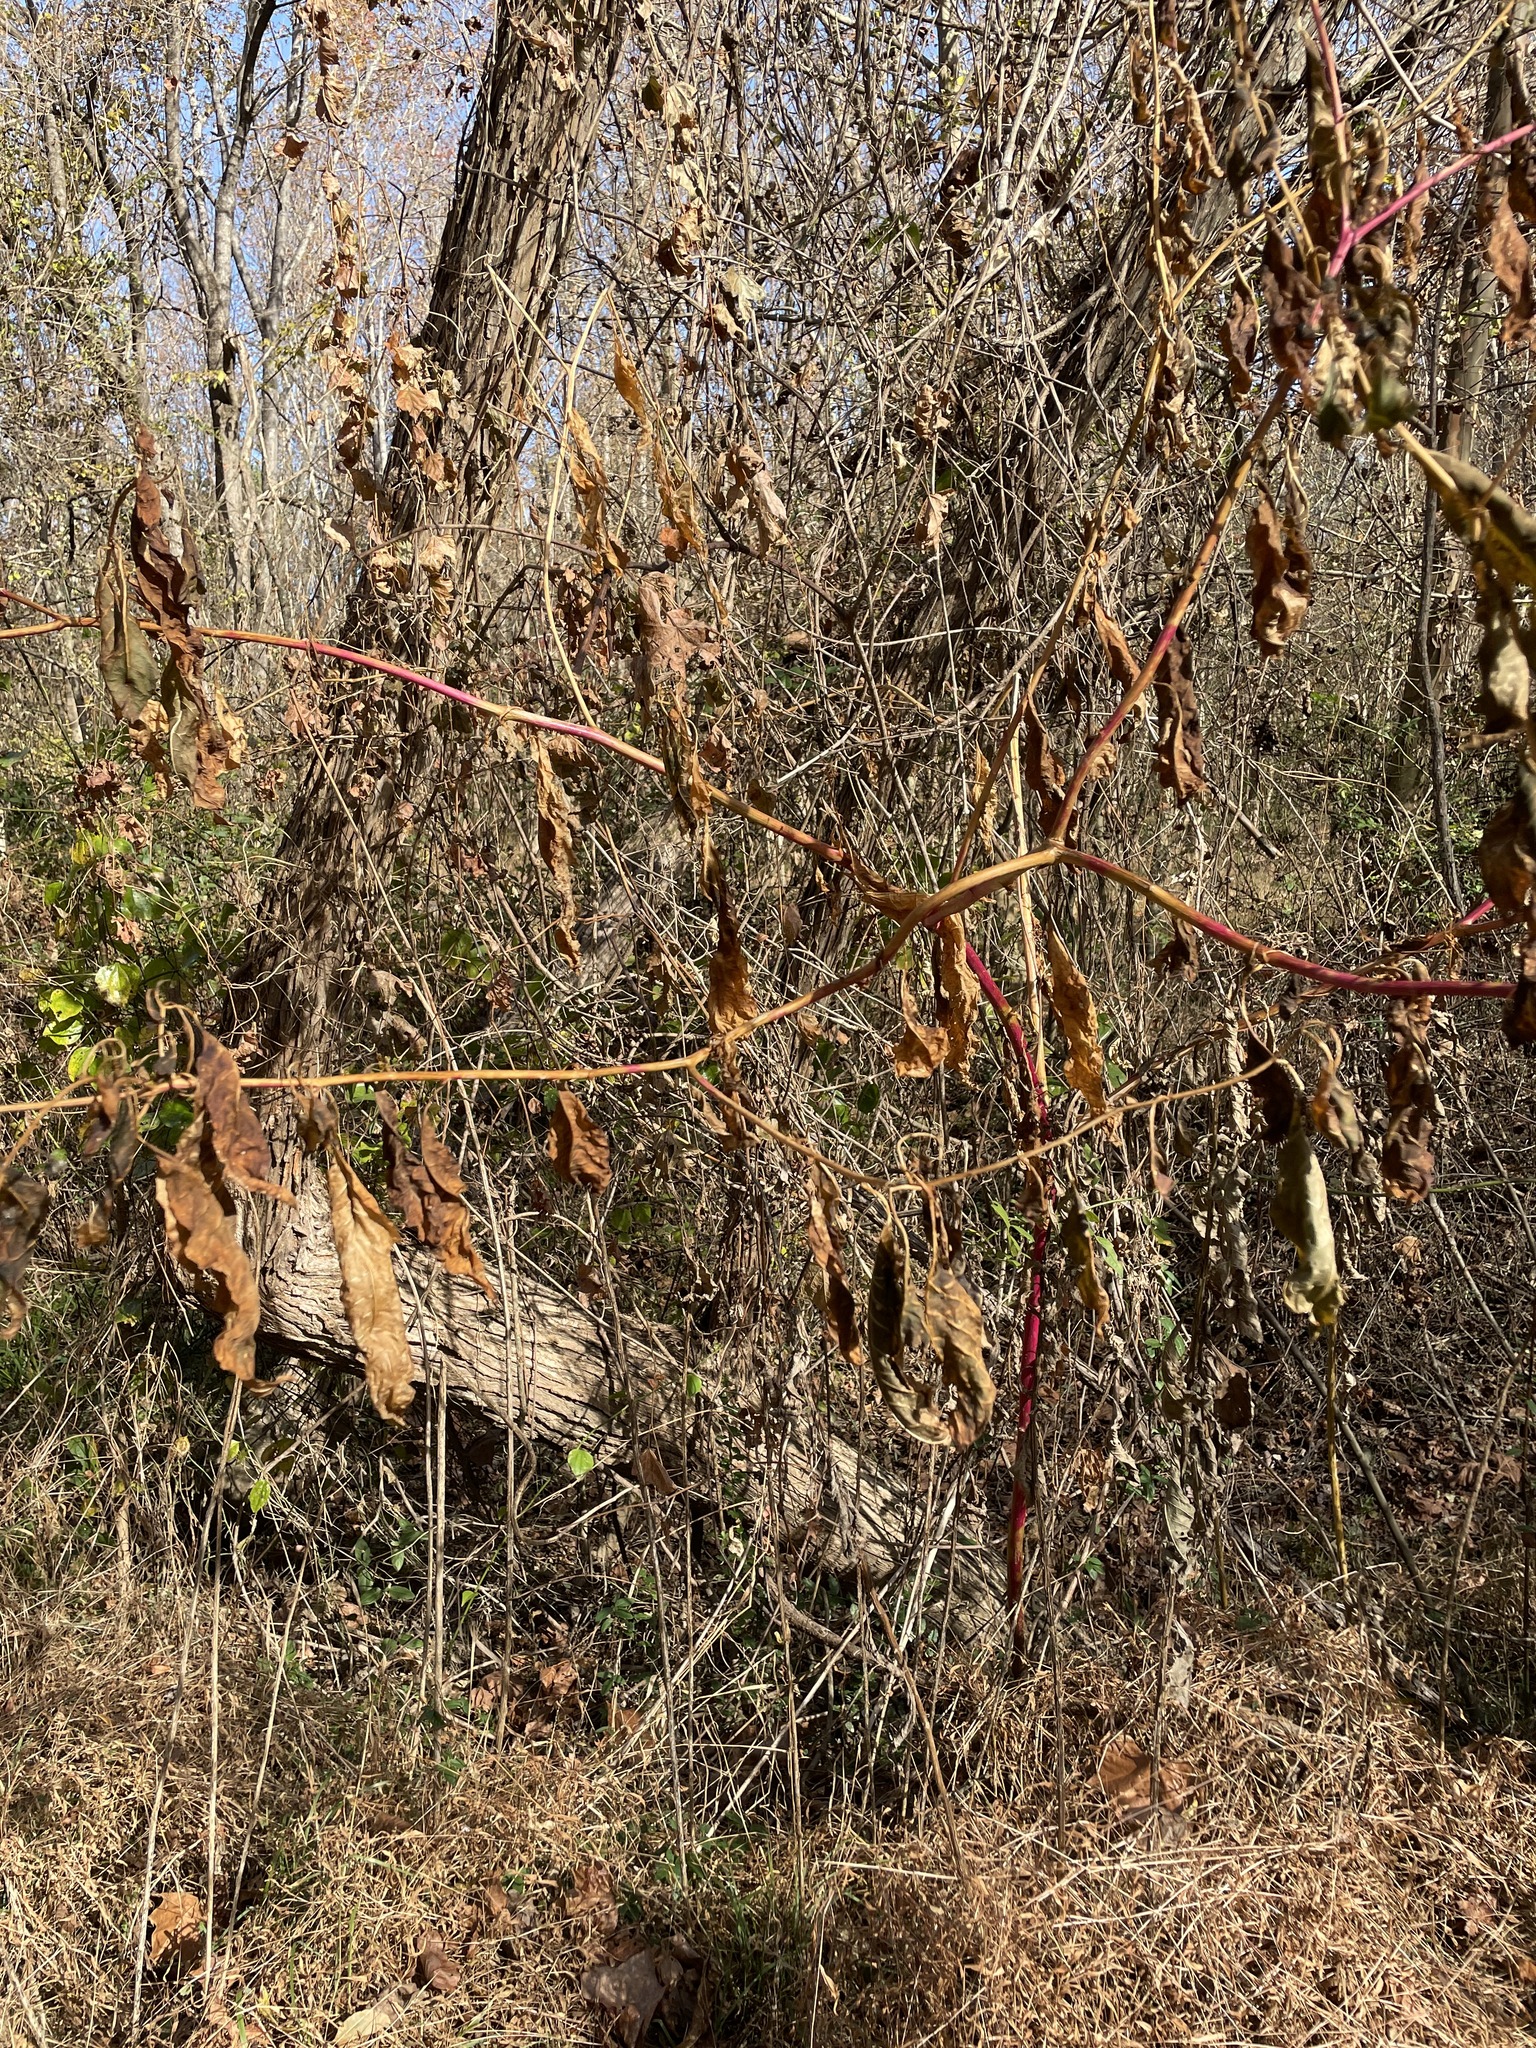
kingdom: Plantae
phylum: Tracheophyta
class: Magnoliopsida
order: Caryophyllales
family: Phytolaccaceae
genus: Phytolacca
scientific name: Phytolacca americana
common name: American pokeweed
